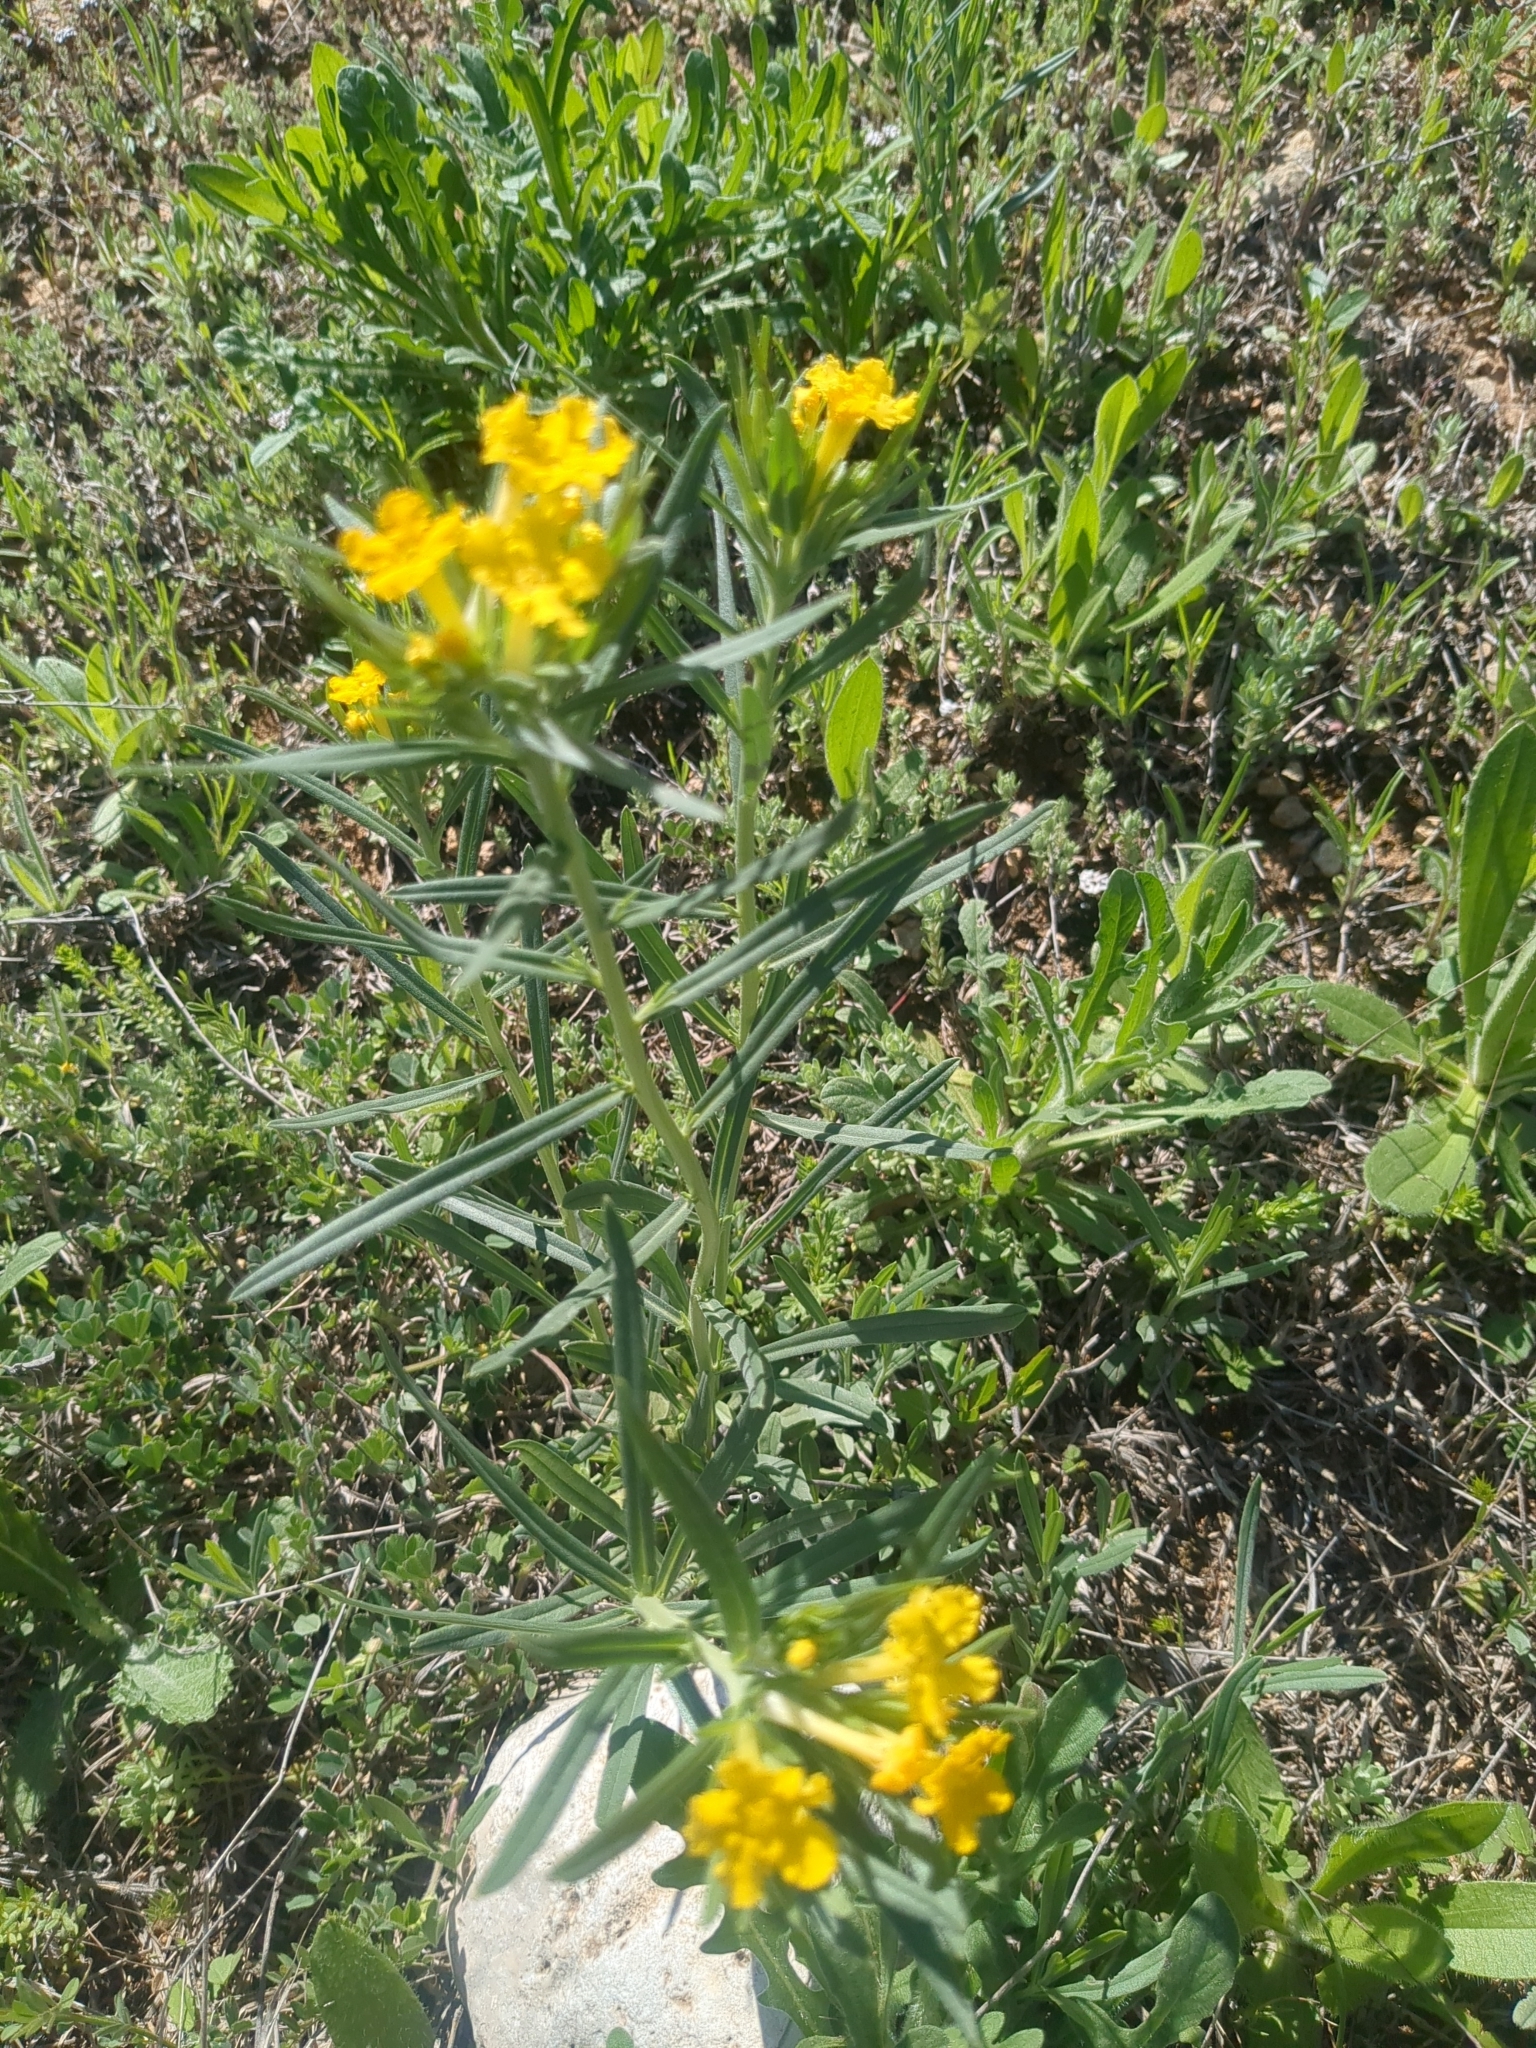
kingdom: Plantae
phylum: Tracheophyta
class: Magnoliopsida
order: Boraginales
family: Boraginaceae
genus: Lithospermum
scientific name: Lithospermum incisum
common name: Fringed gromwell
